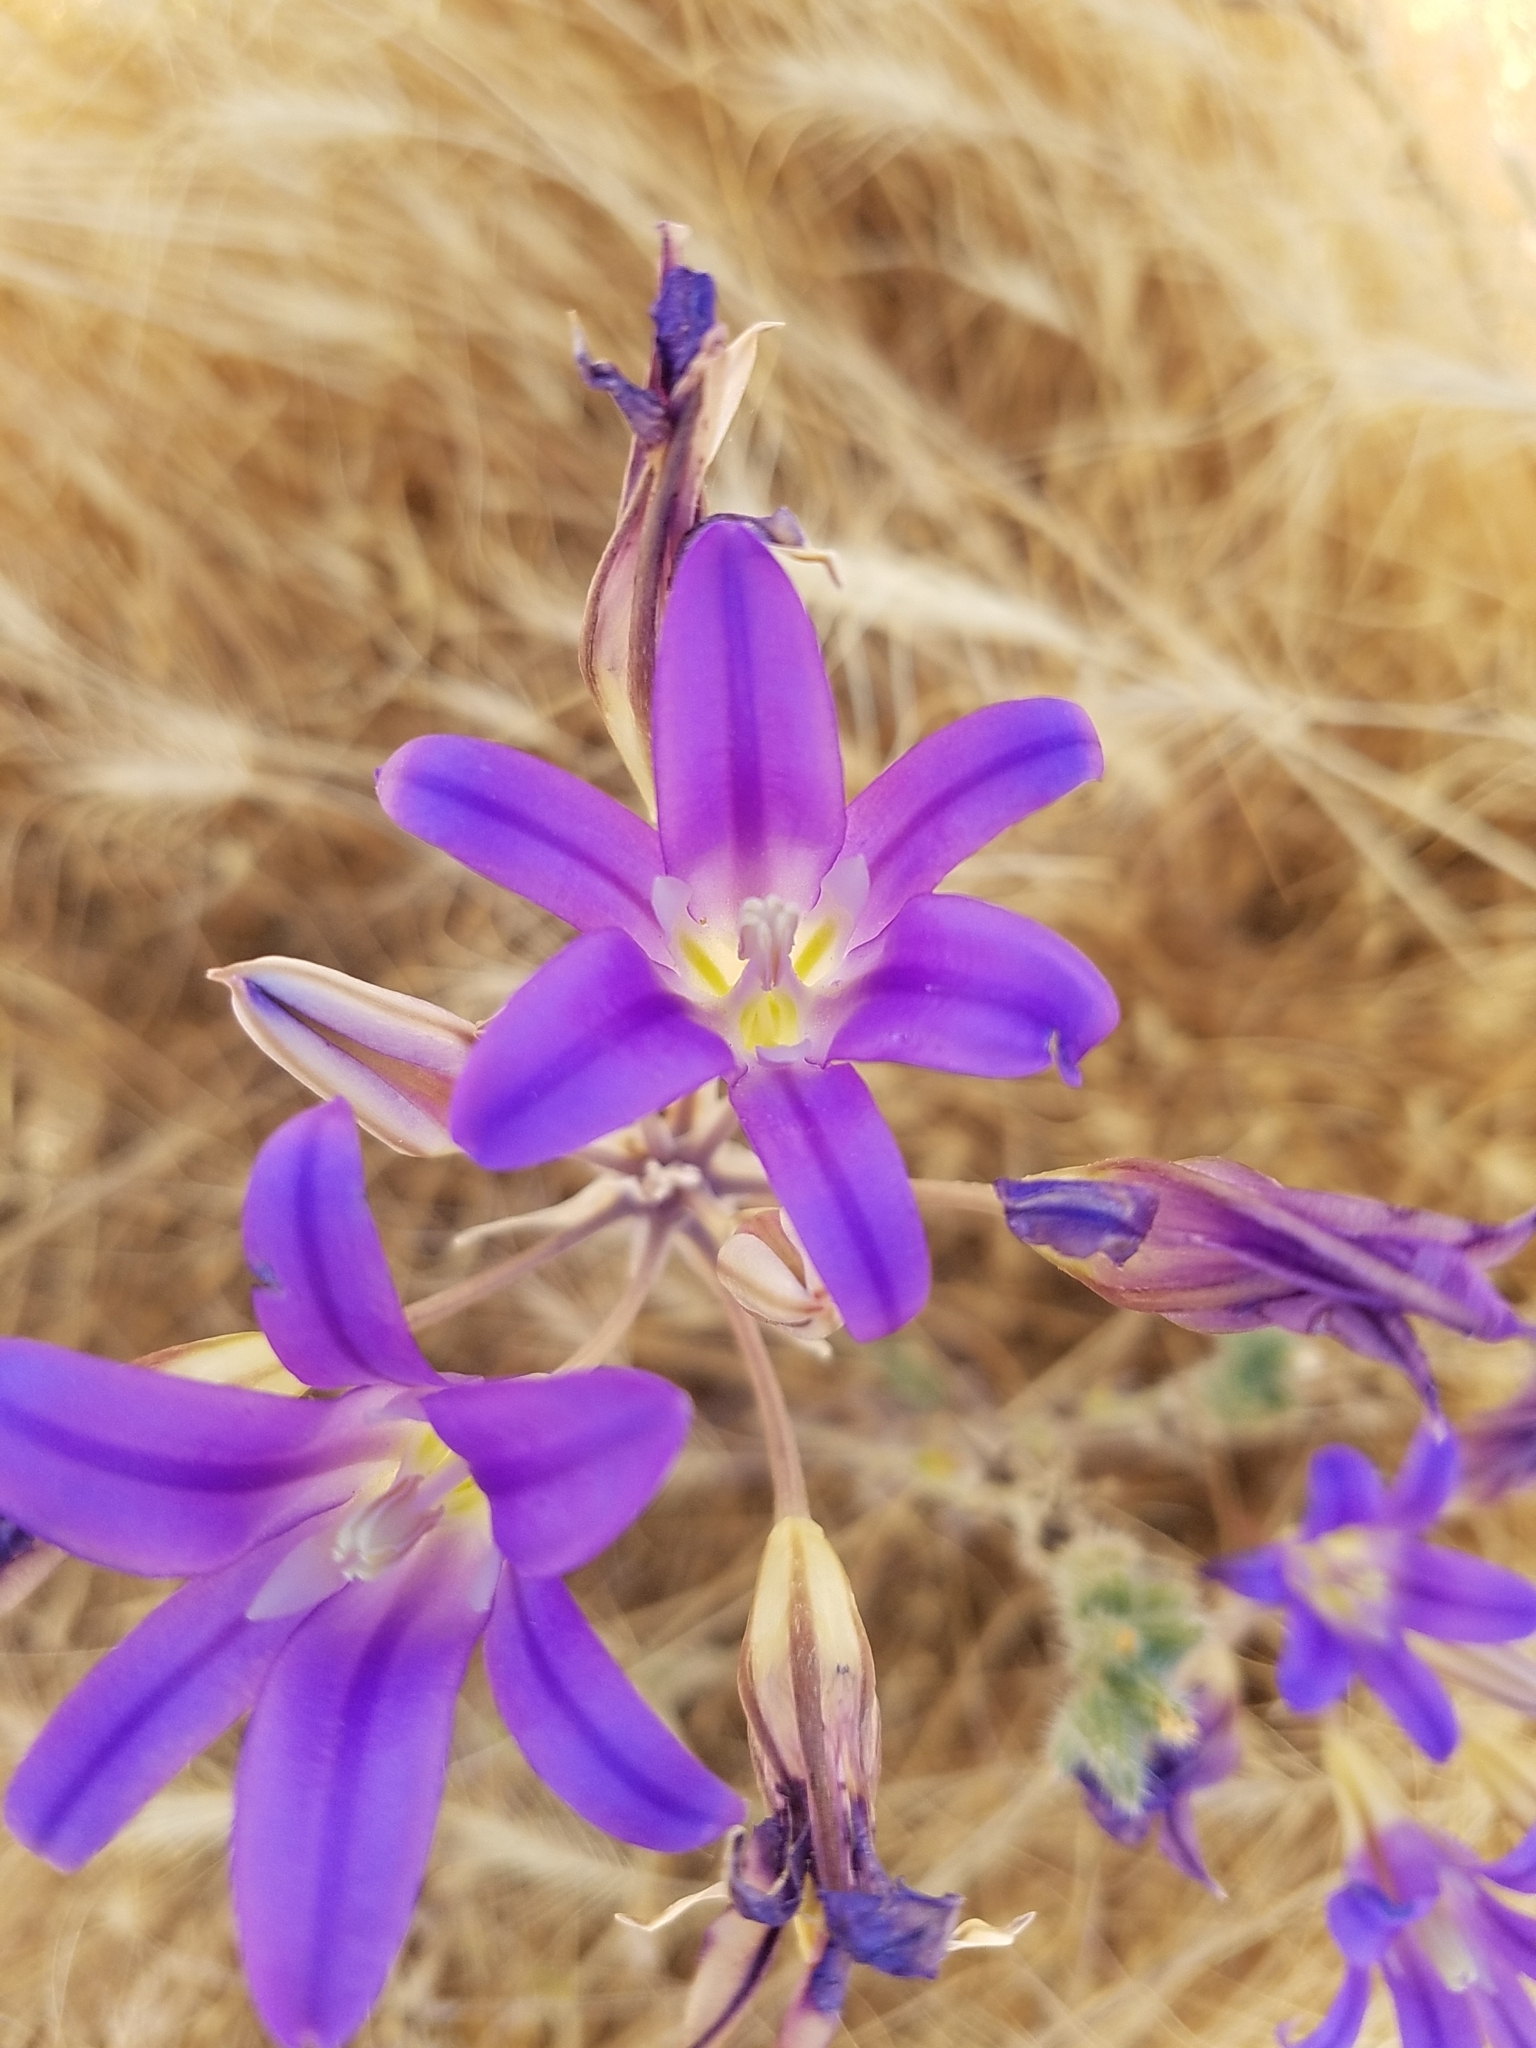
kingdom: Plantae
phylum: Tracheophyta
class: Liliopsida
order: Asparagales
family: Asparagaceae
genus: Brodiaea
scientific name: Brodiaea elegans
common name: Elegant cluster-lily
